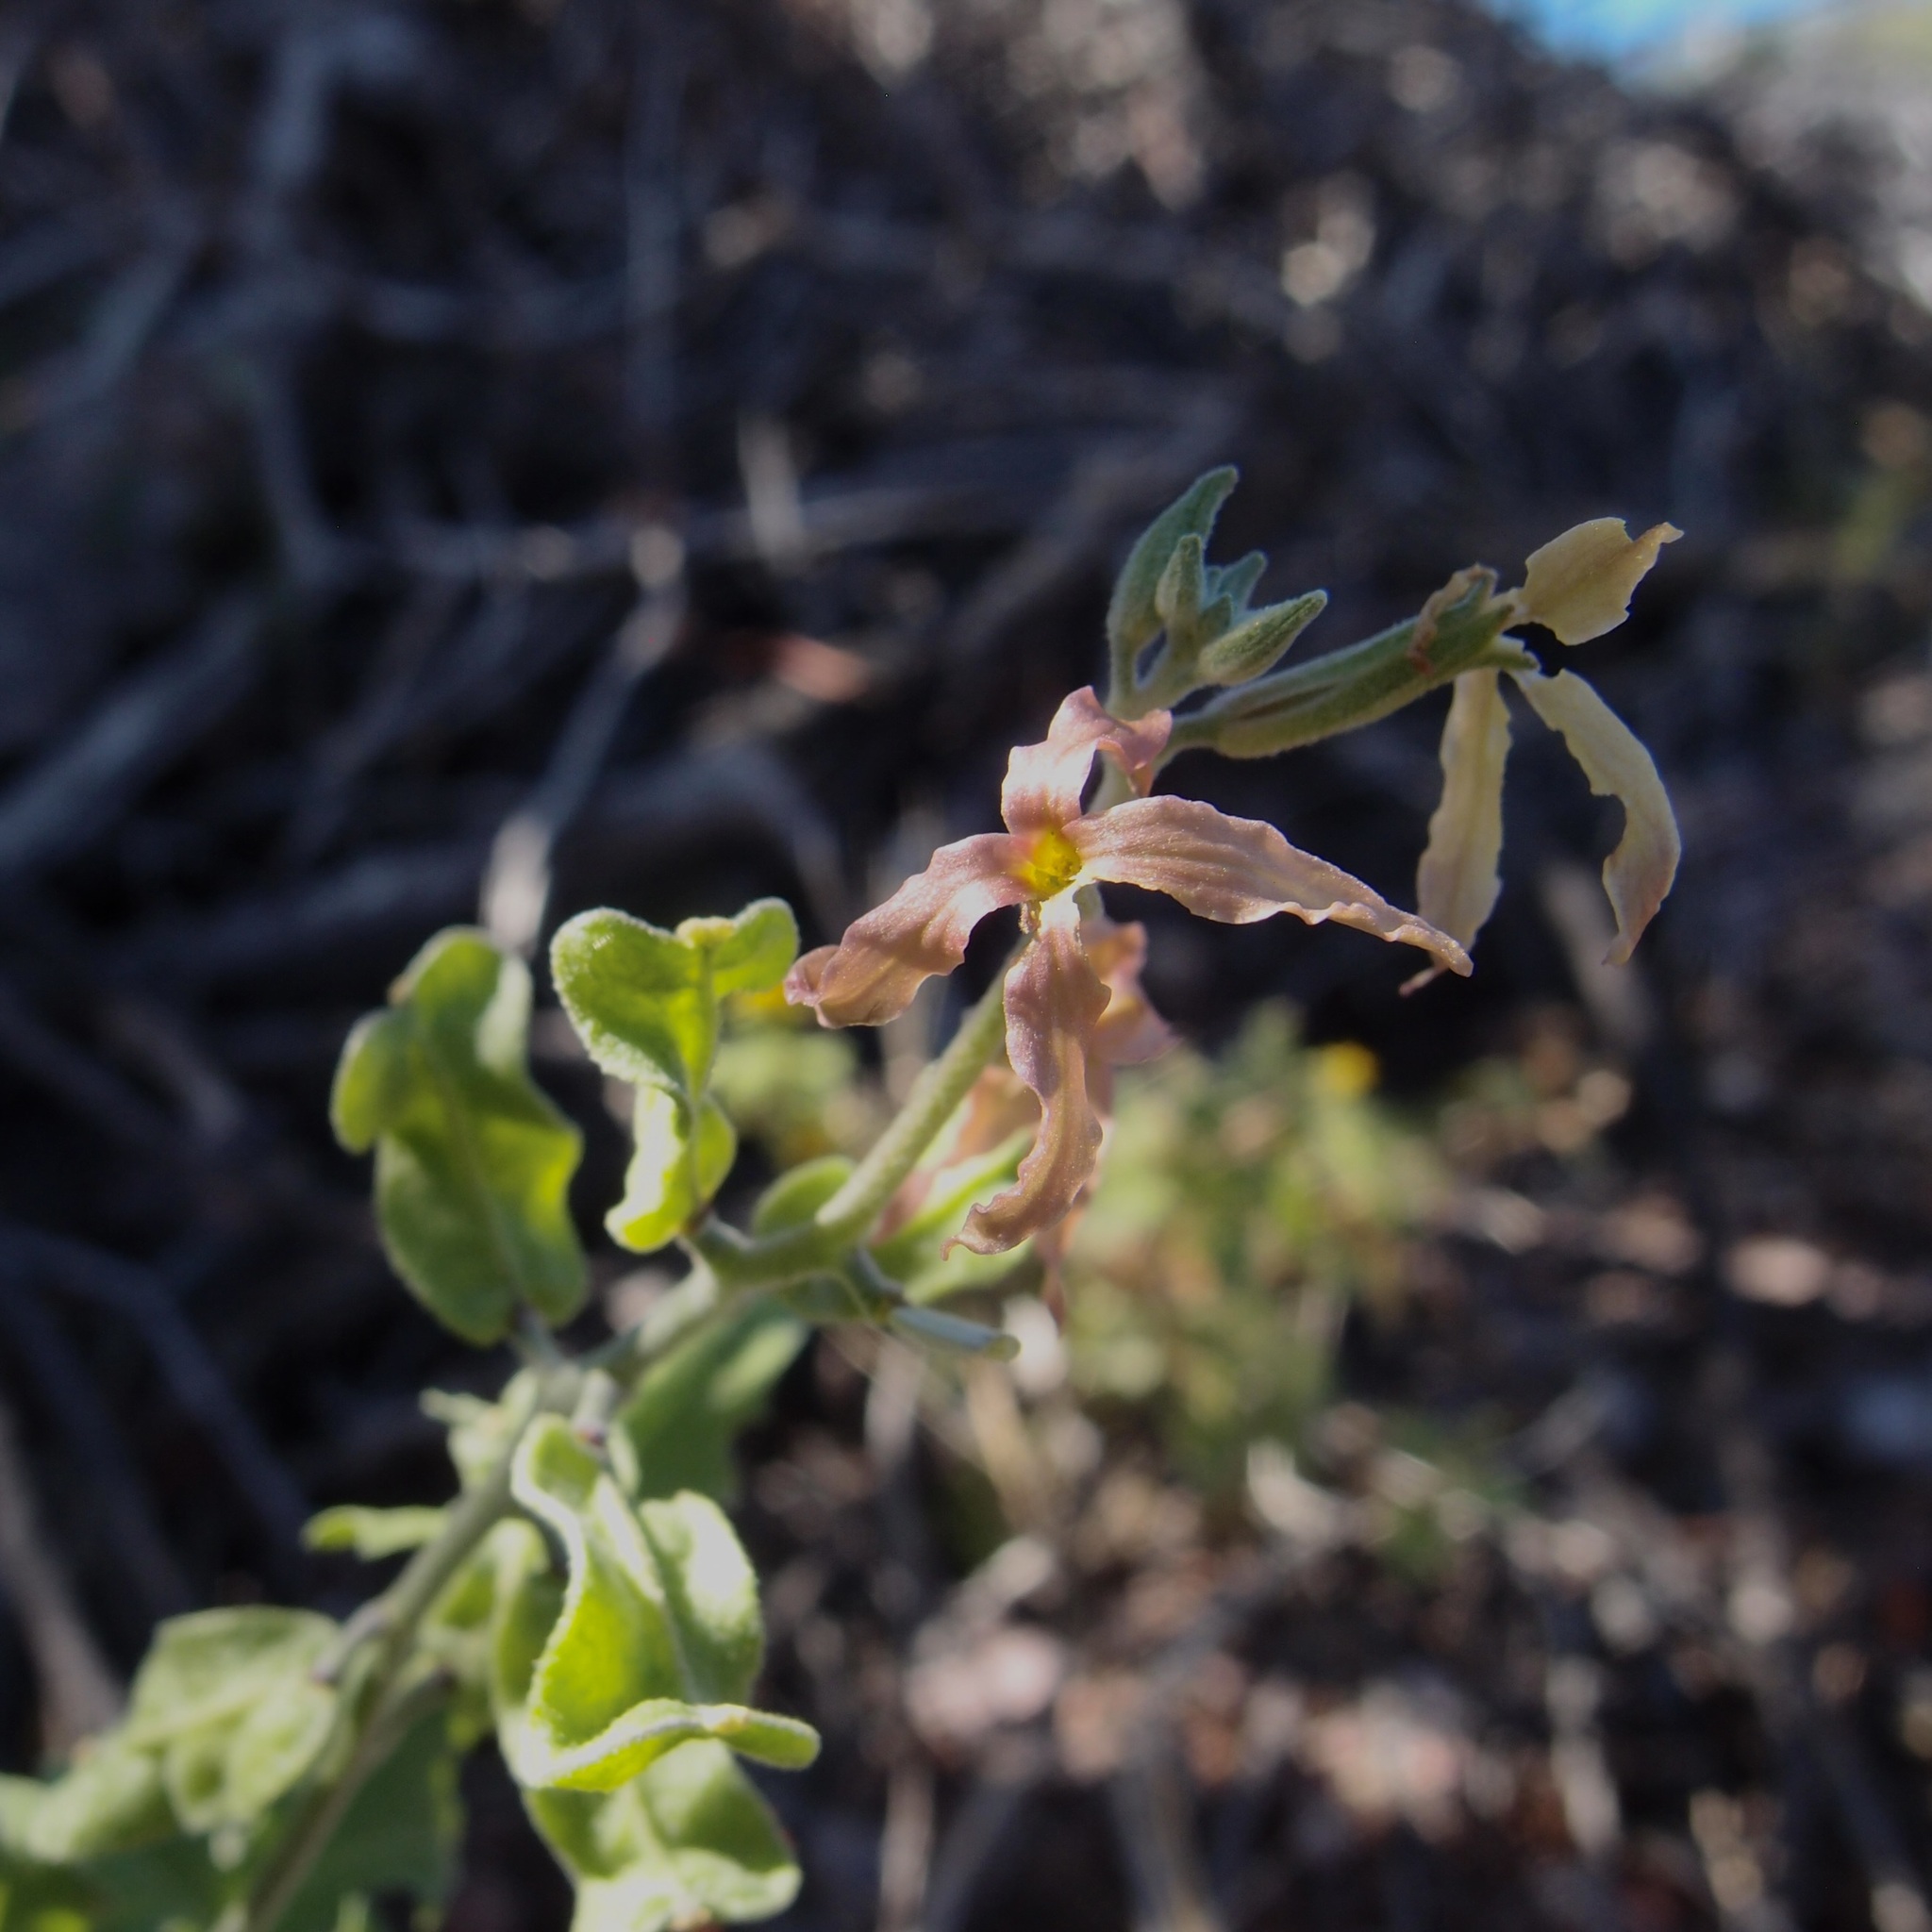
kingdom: Plantae
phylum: Tracheophyta
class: Magnoliopsida
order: Brassicales
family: Brassicaceae
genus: Lyrocarpa
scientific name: Lyrocarpa coulteri
